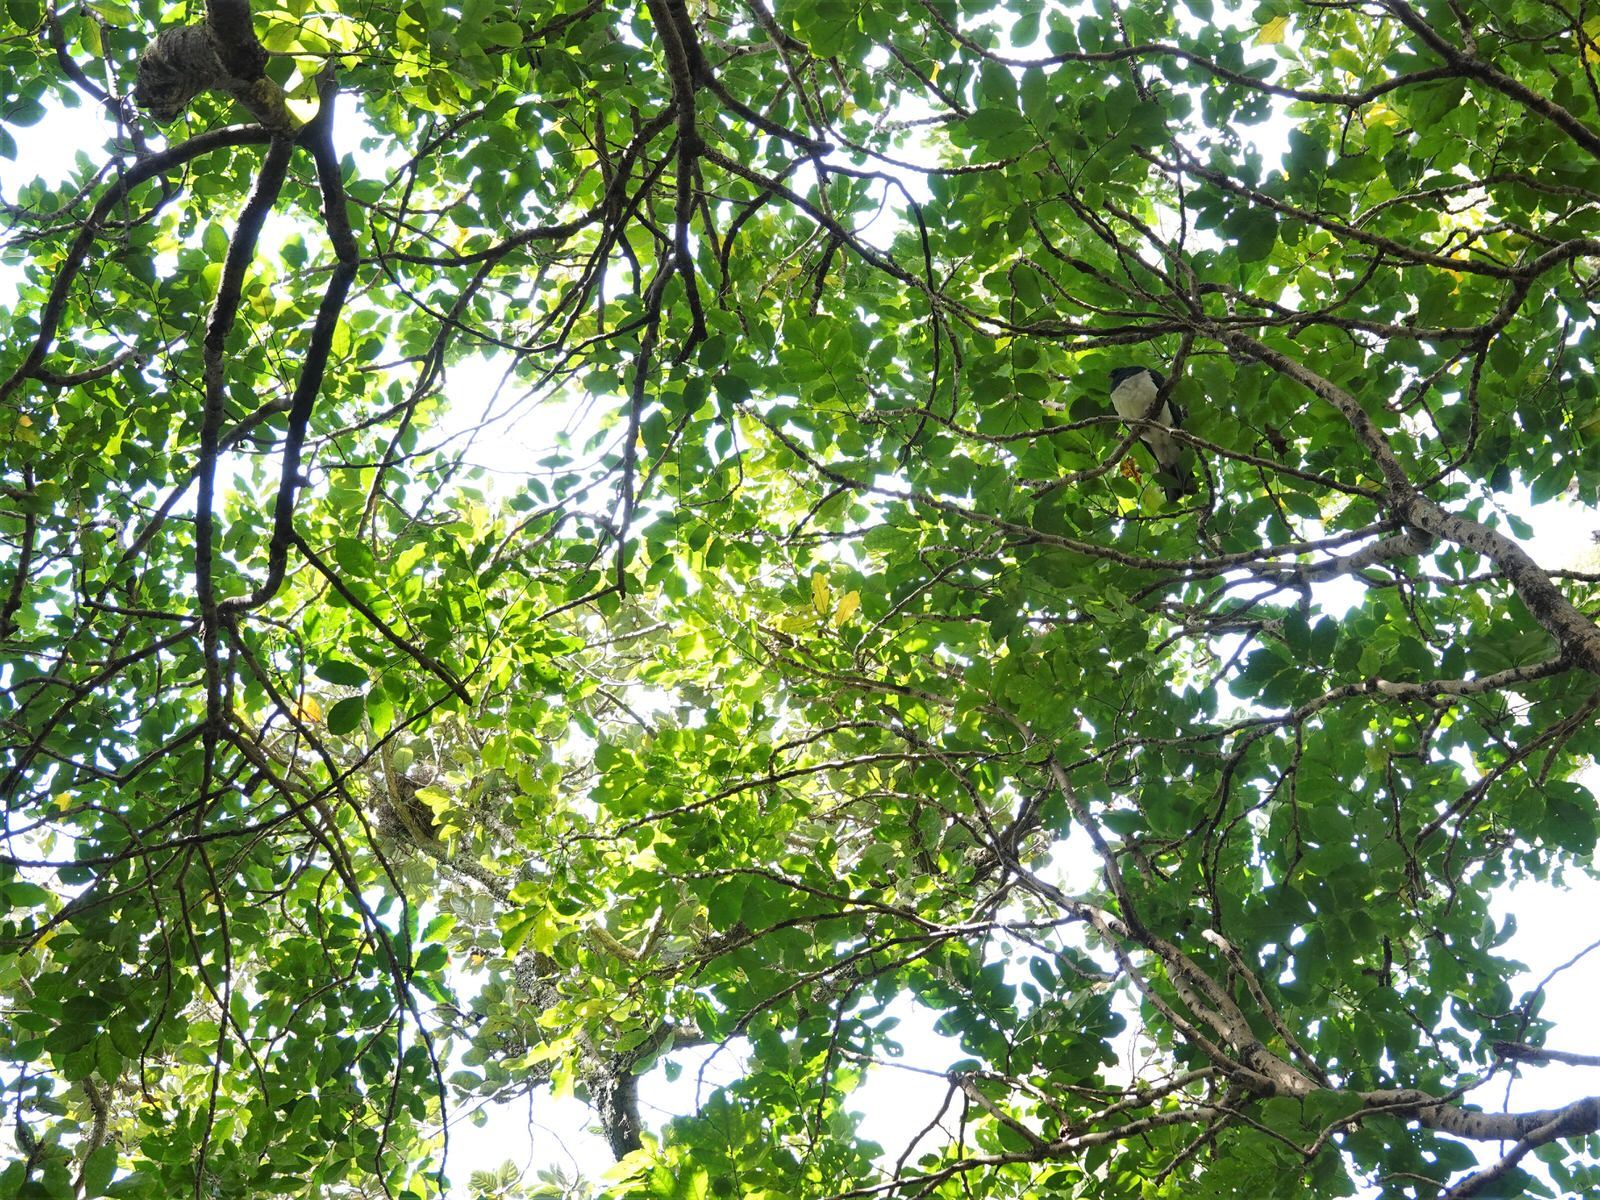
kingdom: Animalia
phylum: Chordata
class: Aves
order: Columbiformes
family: Columbidae
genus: Hemiphaga
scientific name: Hemiphaga novaeseelandiae
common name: New zealand pigeon
